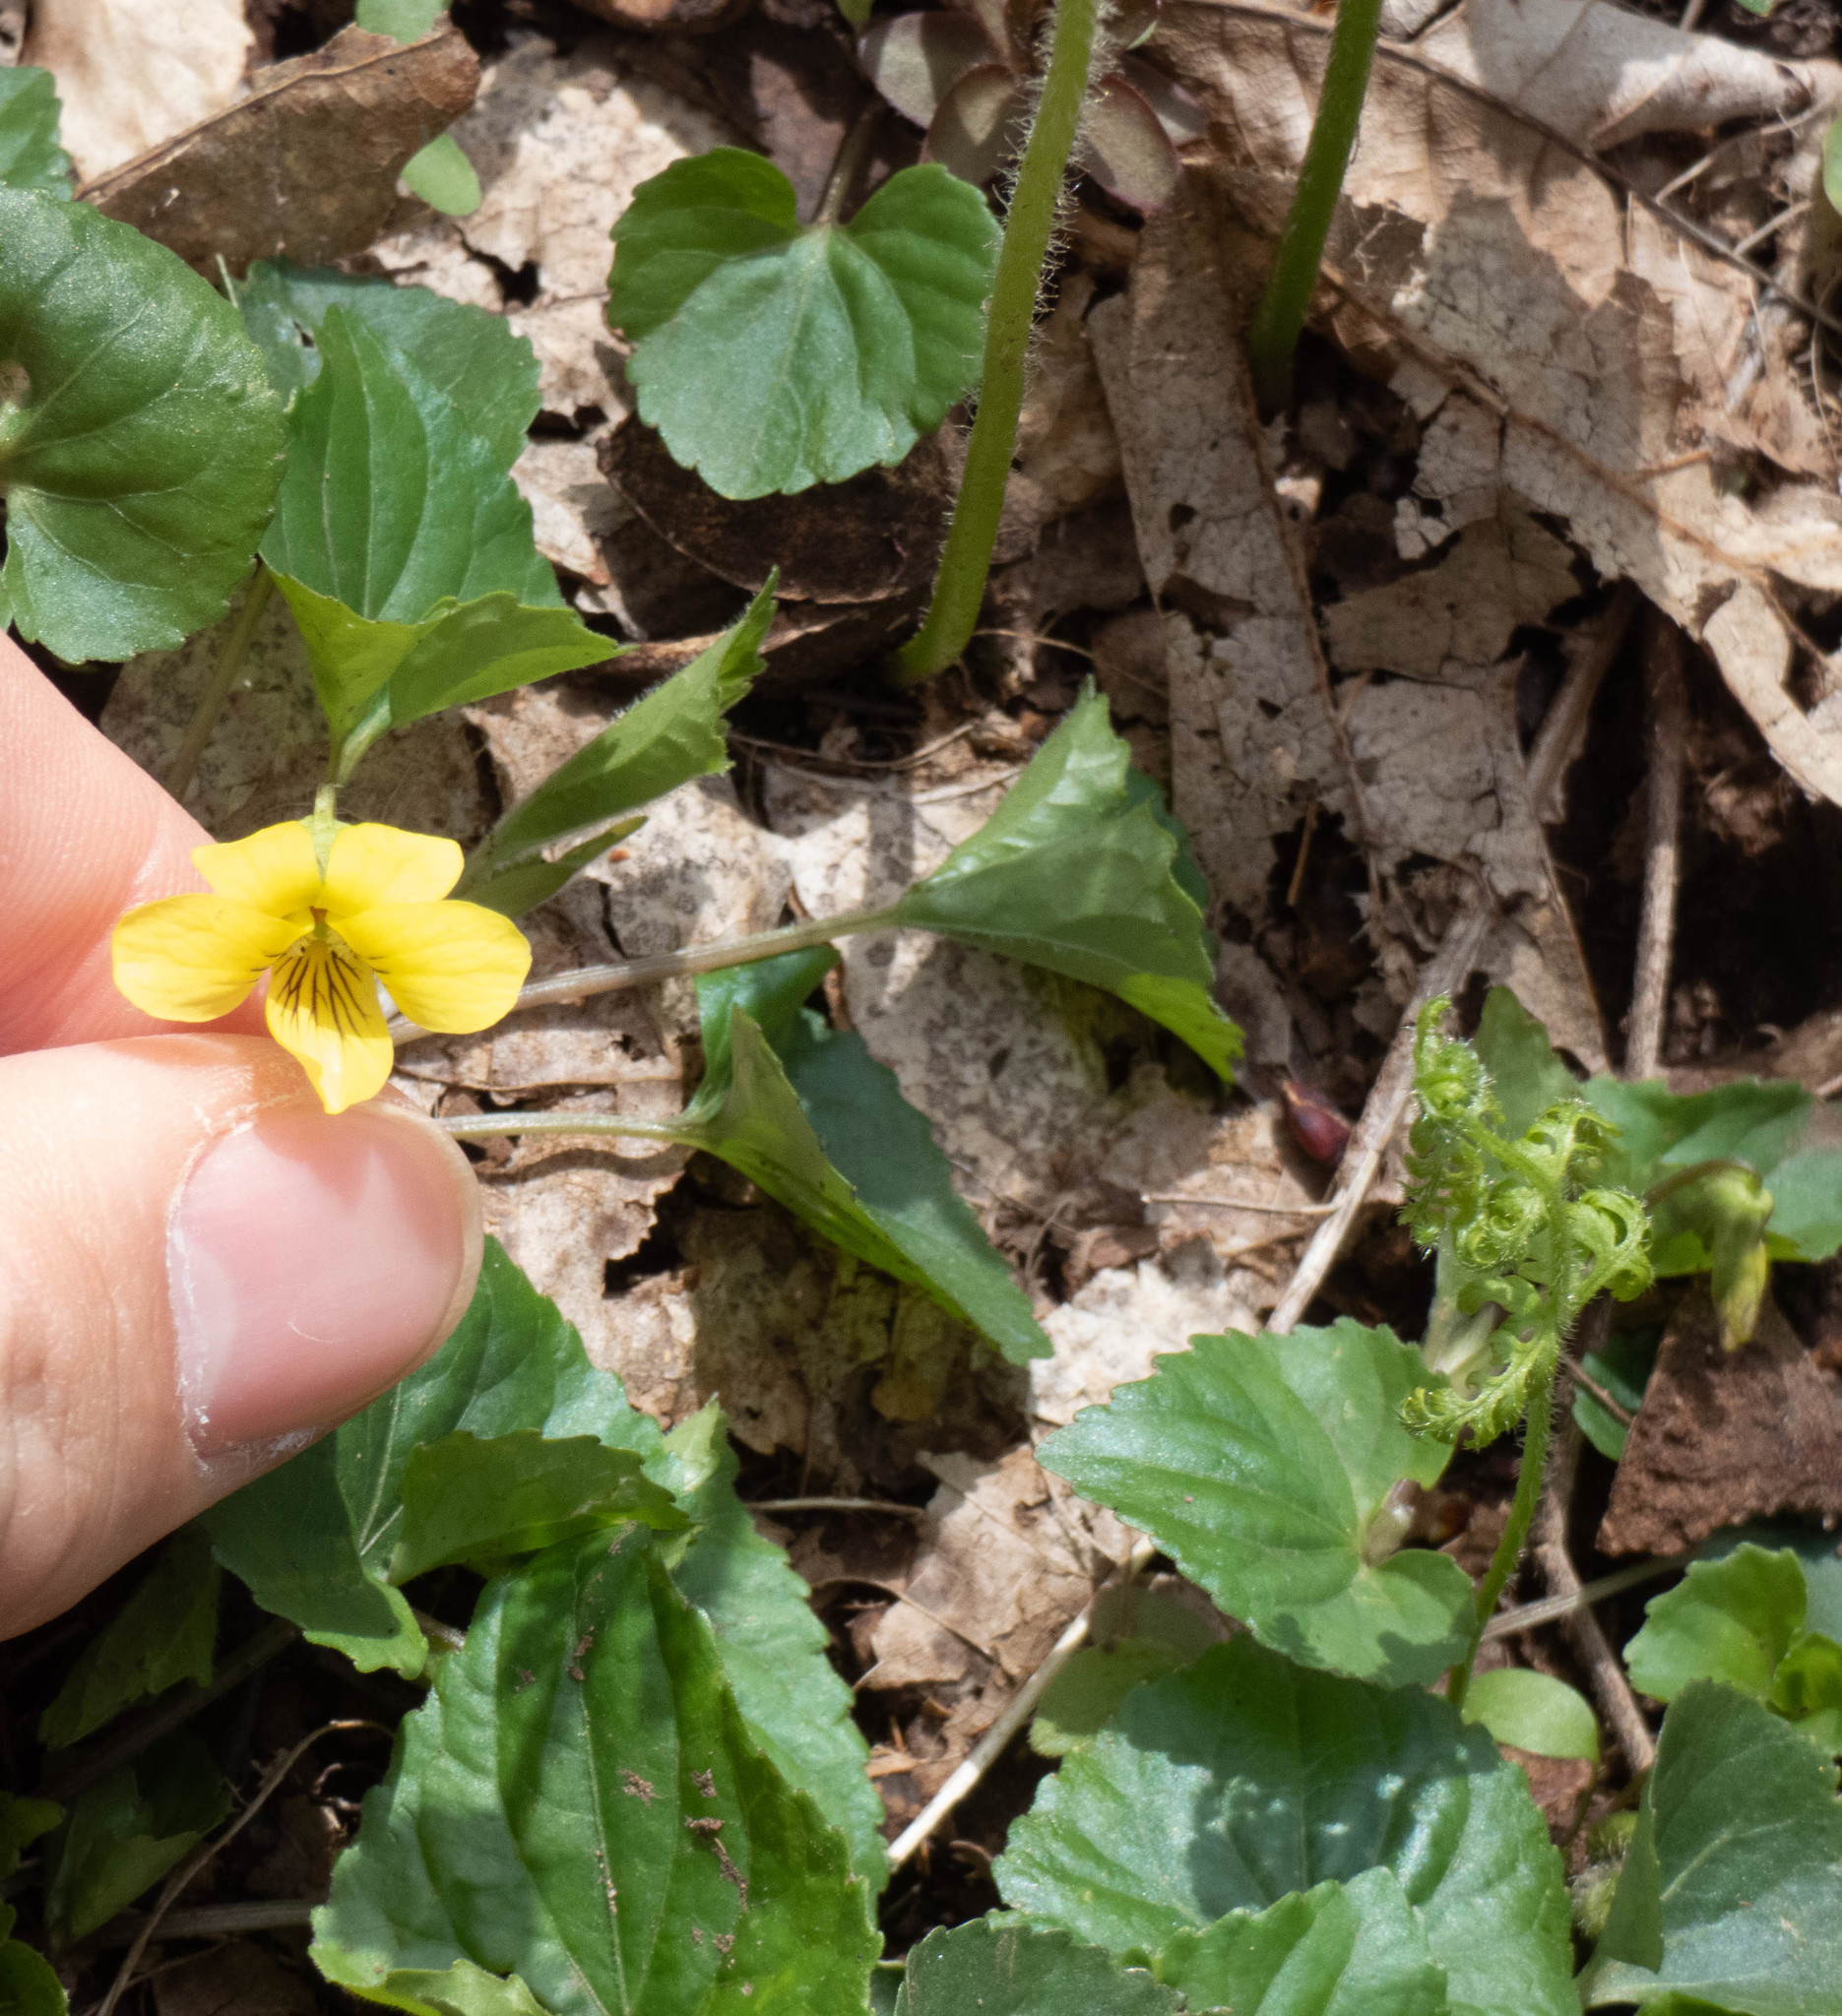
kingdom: Plantae
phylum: Tracheophyta
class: Magnoliopsida
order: Malpighiales
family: Violaceae
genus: Viola
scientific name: Viola eriocarpa
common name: Smooth yellow violet
